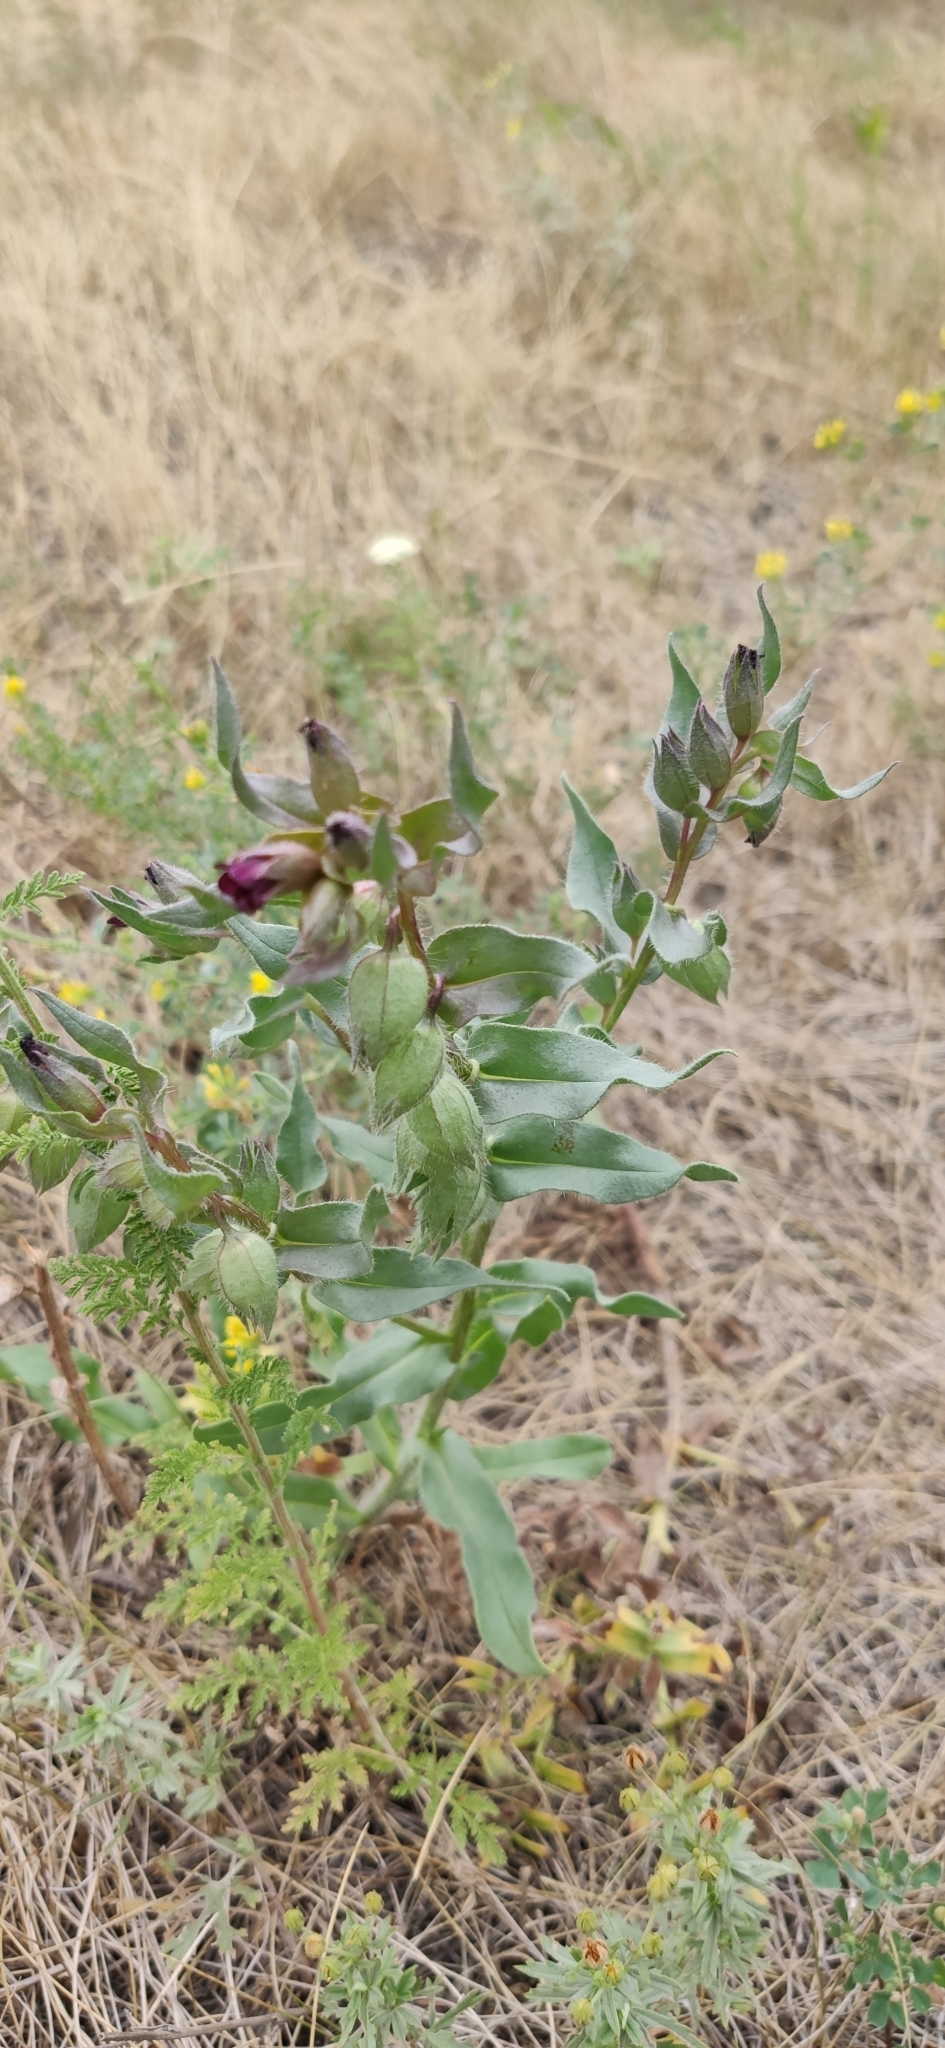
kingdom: Plantae
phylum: Tracheophyta
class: Magnoliopsida
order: Boraginales
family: Boraginaceae
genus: Nonea
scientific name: Nonea pulla
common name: Brown nonea
